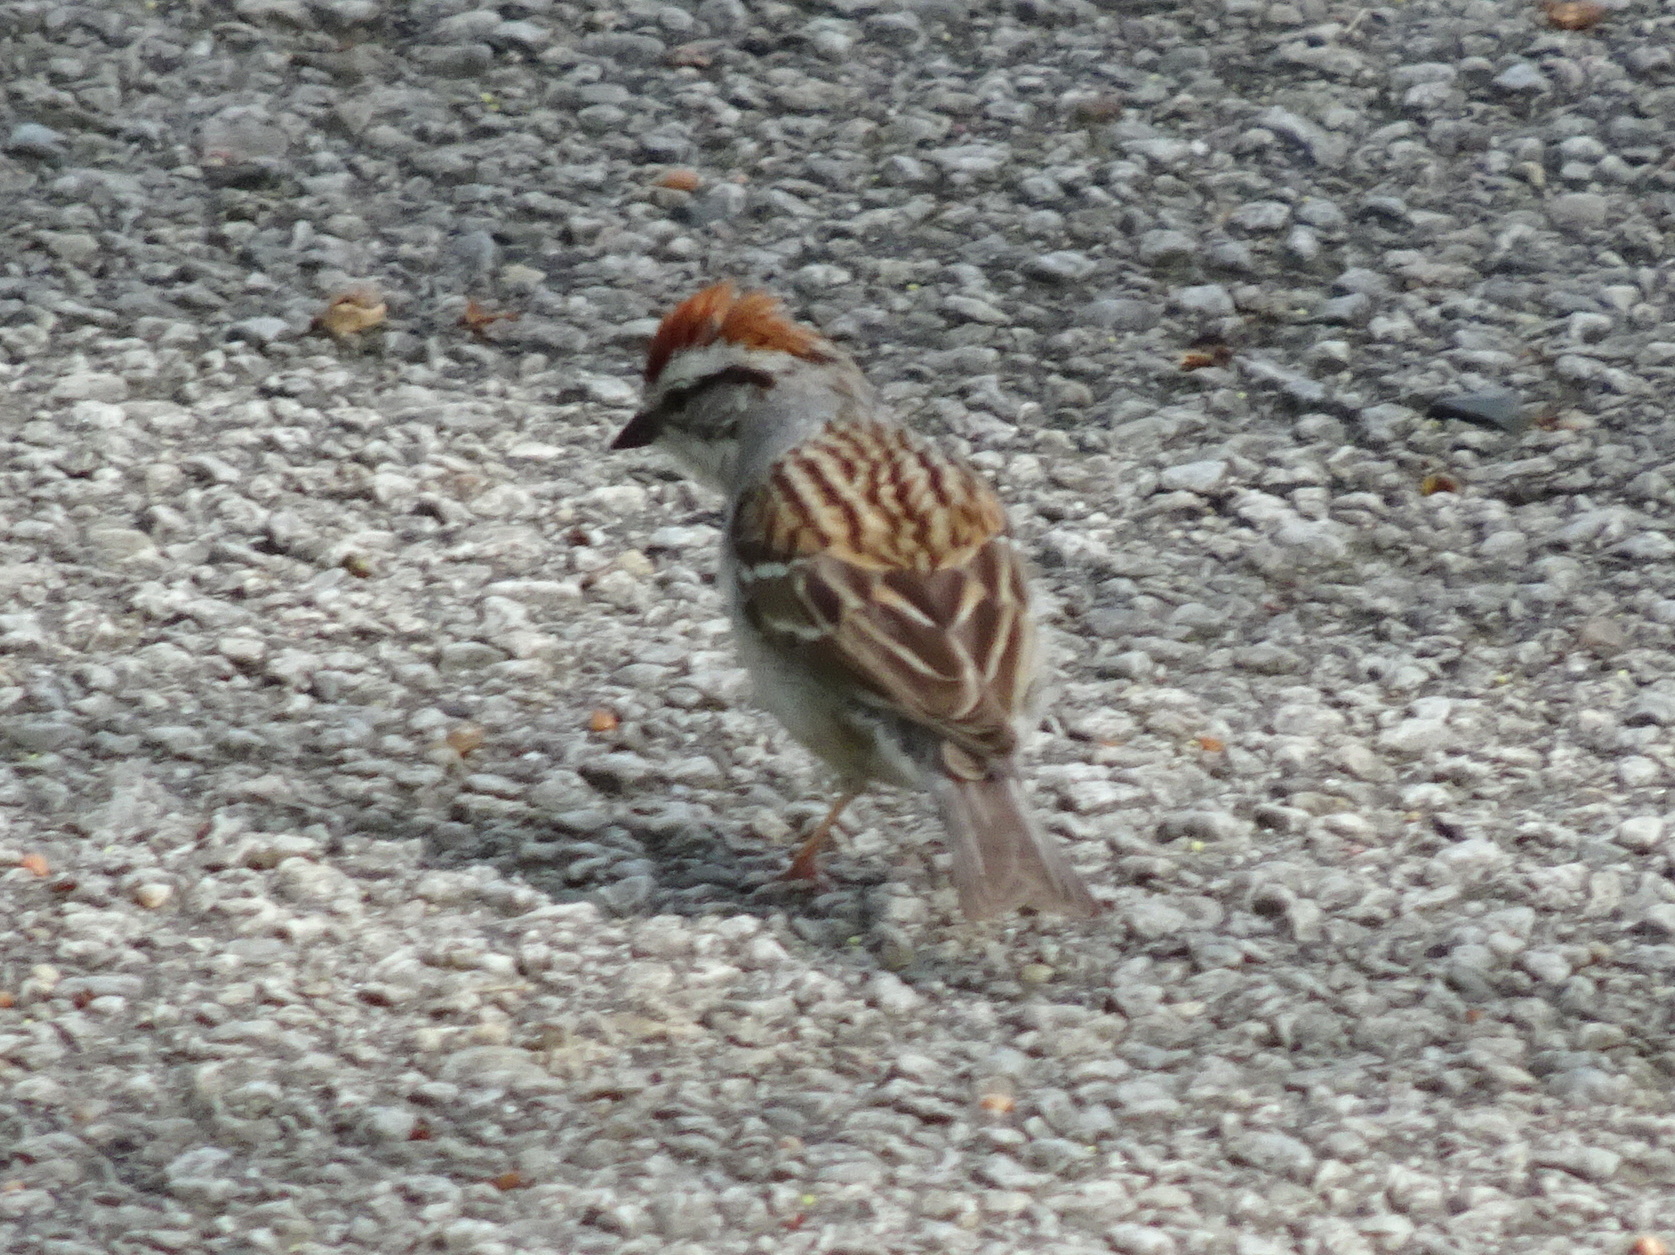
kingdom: Animalia
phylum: Chordata
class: Aves
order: Passeriformes
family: Passerellidae
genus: Spizella
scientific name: Spizella passerina
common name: Chipping sparrow
